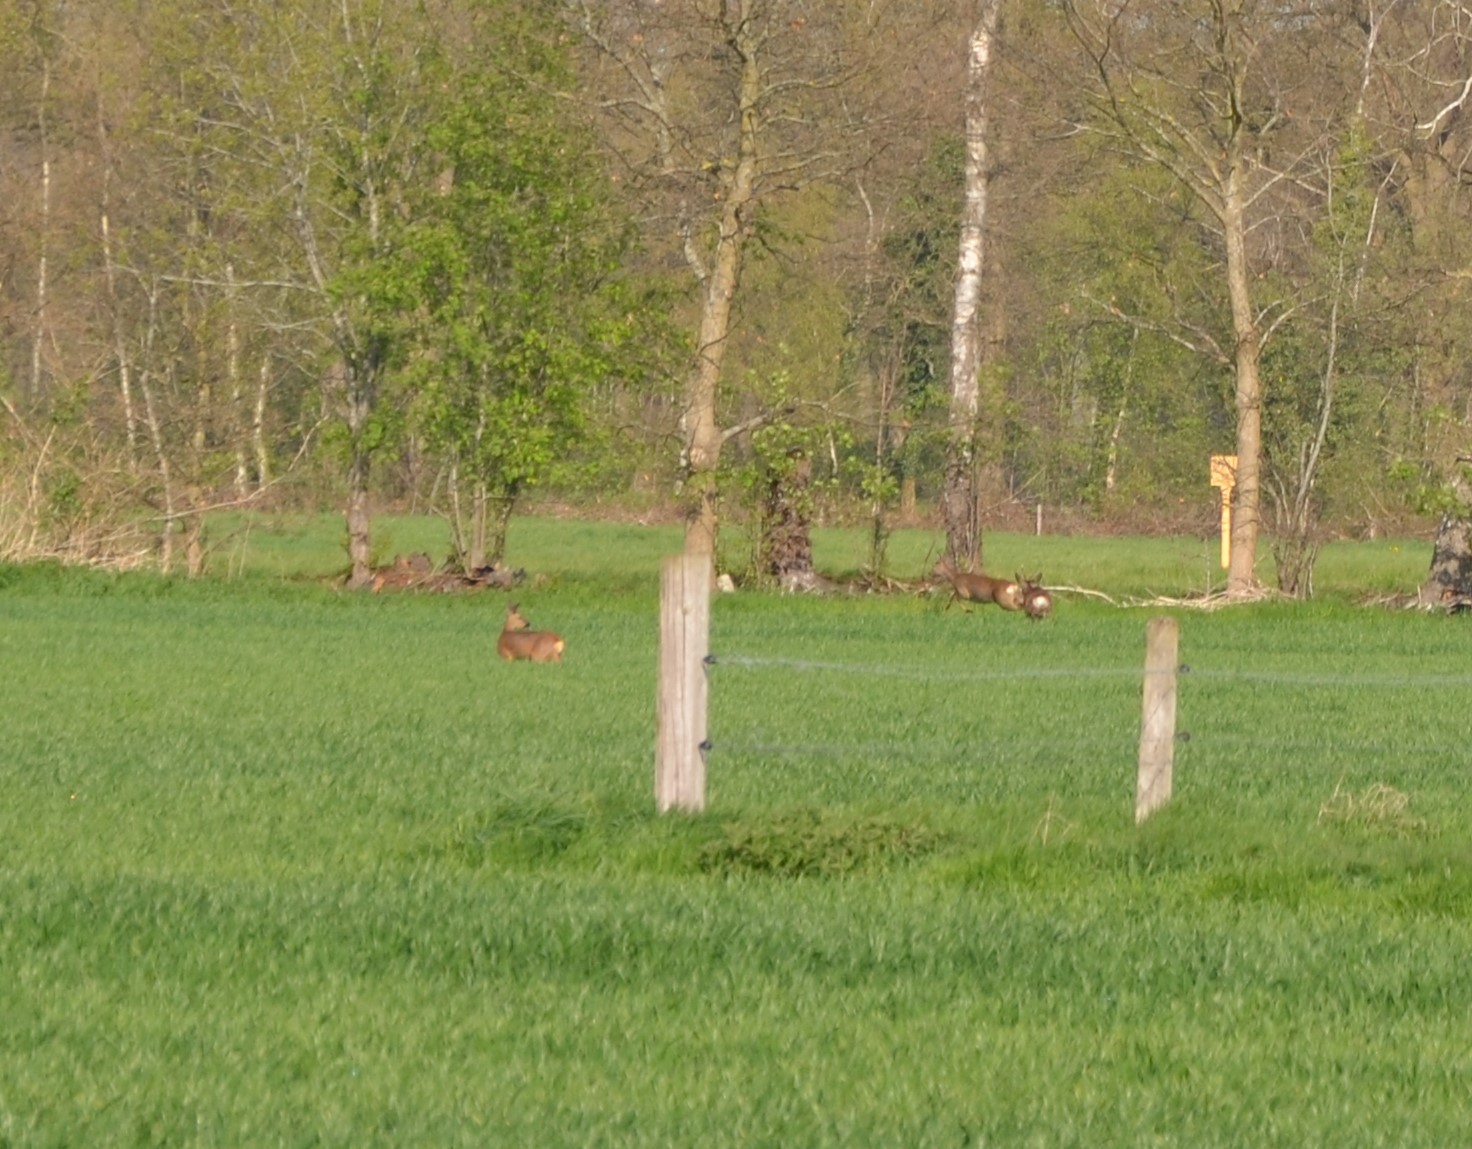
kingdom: Animalia
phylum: Chordata
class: Mammalia
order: Artiodactyla
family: Cervidae
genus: Capreolus
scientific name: Capreolus capreolus
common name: Western roe deer
